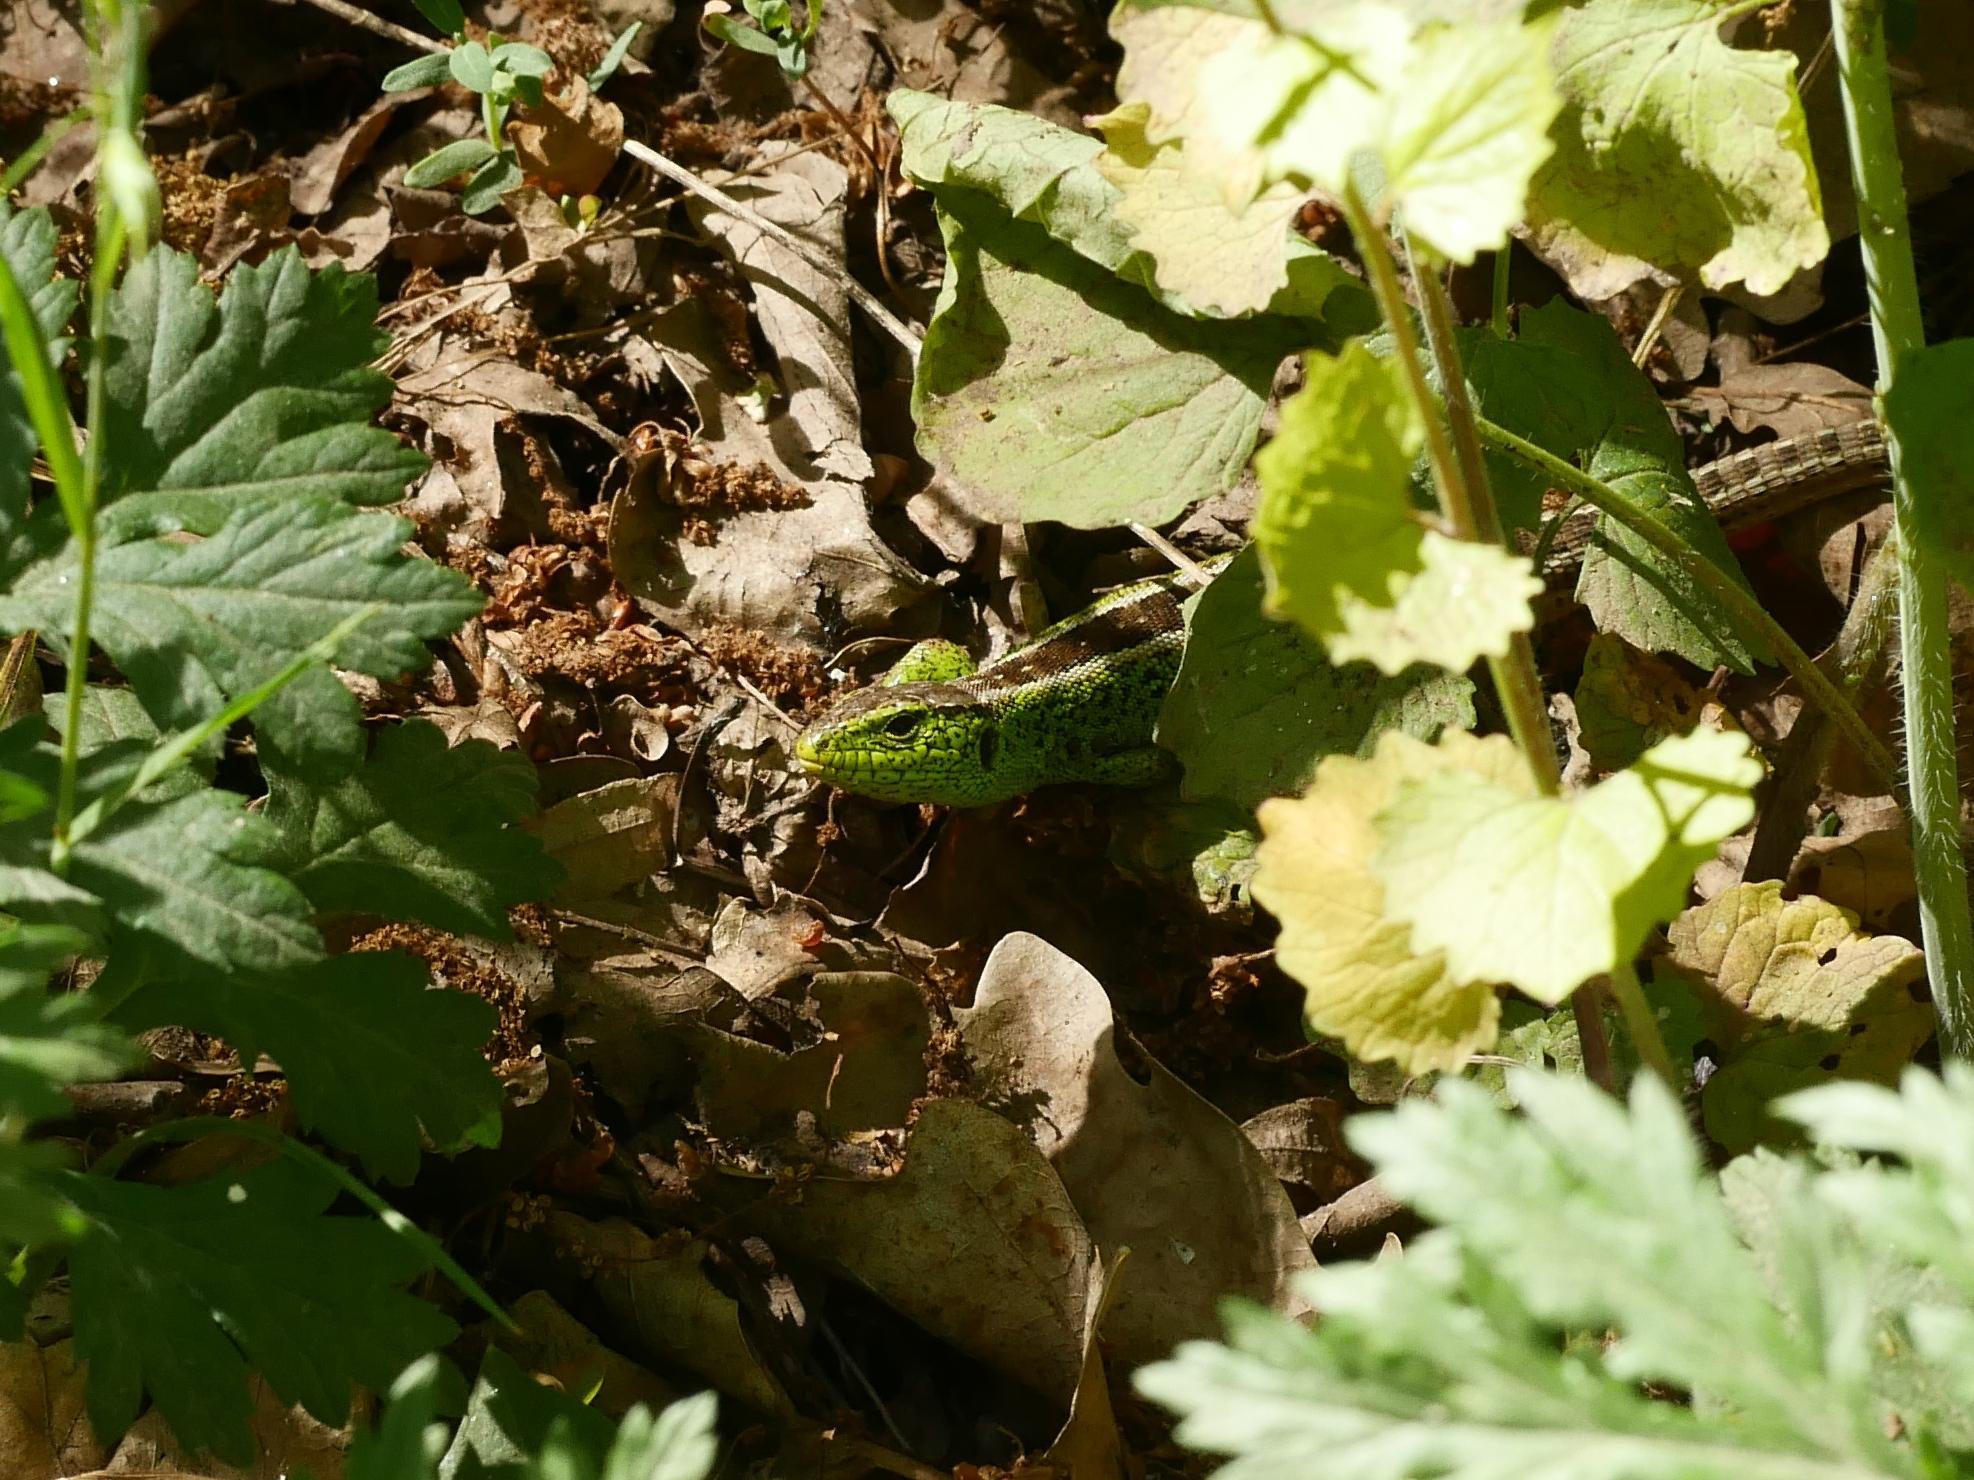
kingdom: Animalia
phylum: Chordata
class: Squamata
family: Lacertidae
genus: Lacerta
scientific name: Lacerta agilis
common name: Sand lizard
